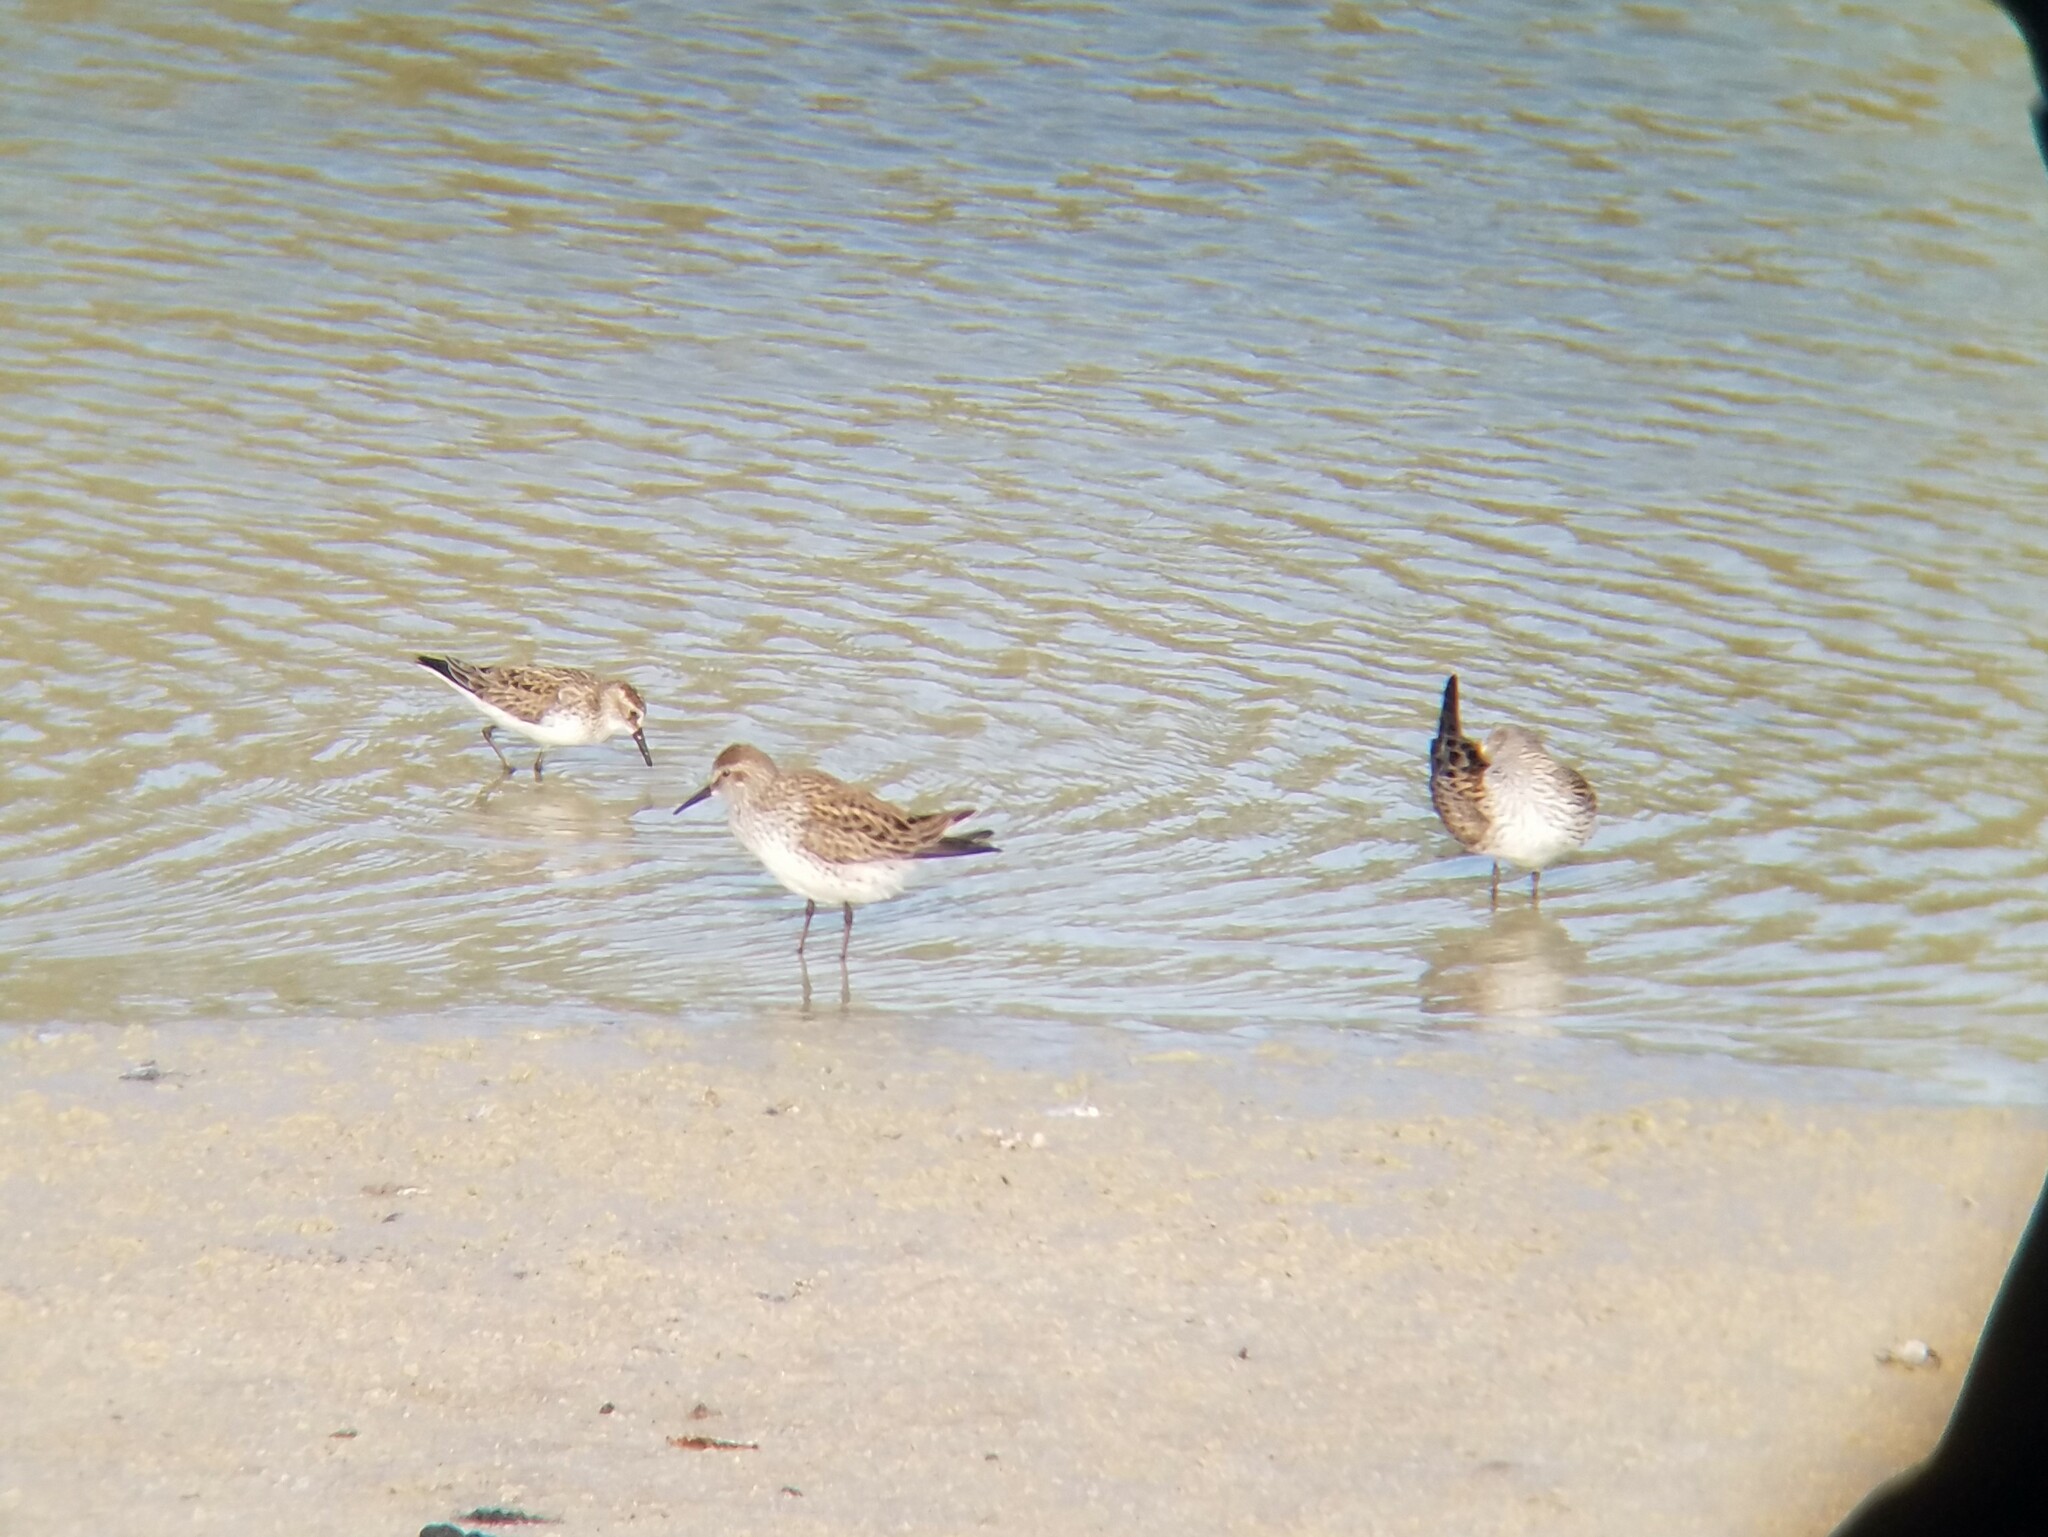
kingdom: Animalia
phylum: Chordata
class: Aves
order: Charadriiformes
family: Scolopacidae
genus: Calidris
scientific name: Calidris fuscicollis
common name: White-rumped sandpiper
